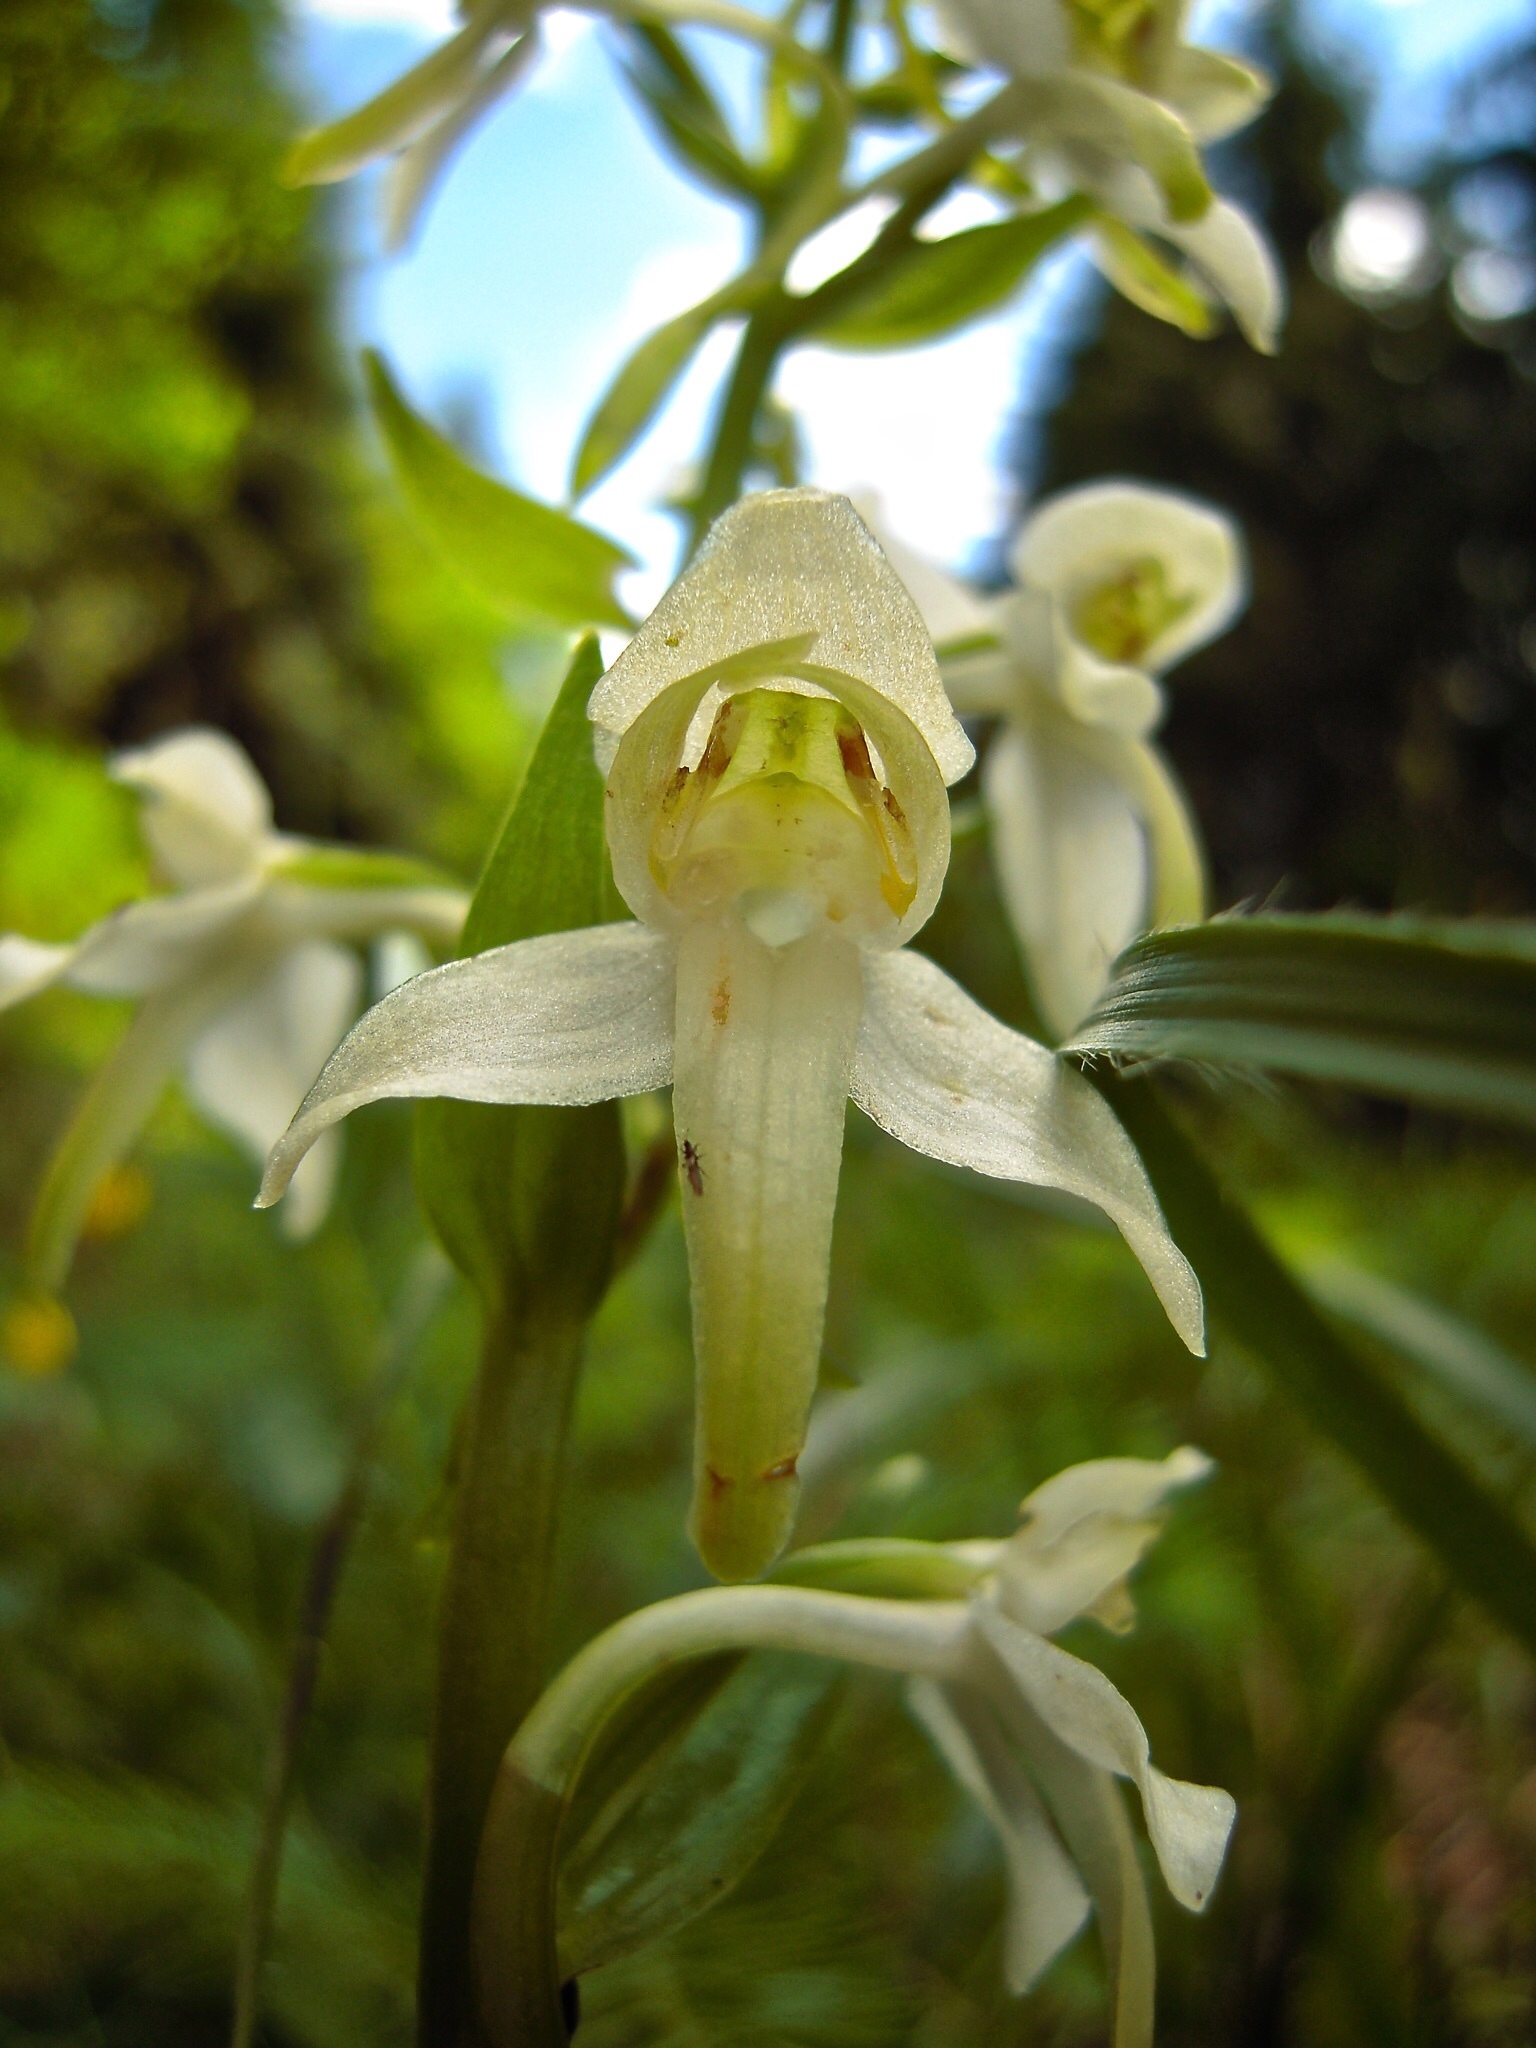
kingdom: Plantae
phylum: Tracheophyta
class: Liliopsida
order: Asparagales
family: Orchidaceae
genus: Platanthera
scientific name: Platanthera chlorantha
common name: Greater butterfly-orchid
